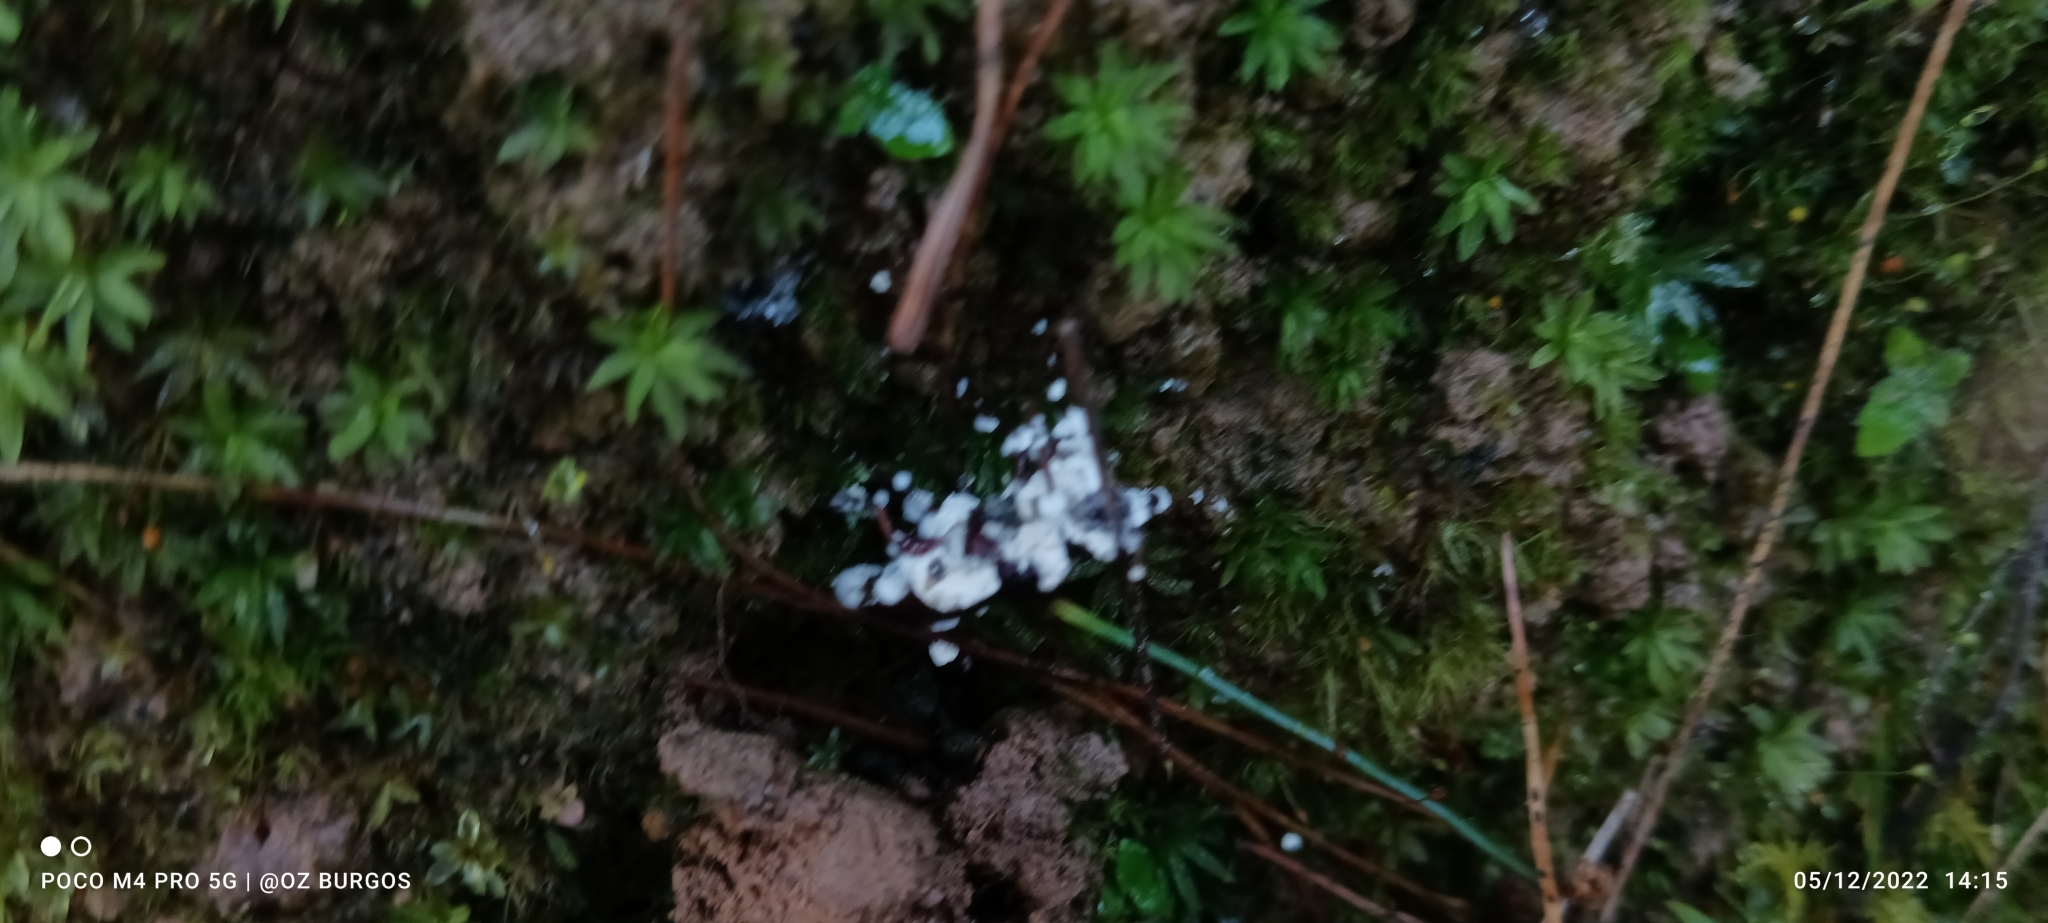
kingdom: Fungi
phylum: Ascomycota
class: Sordariomycetes
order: Hypocreales
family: Cordycipitaceae
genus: Beauveria
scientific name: Beauveria bassiana
